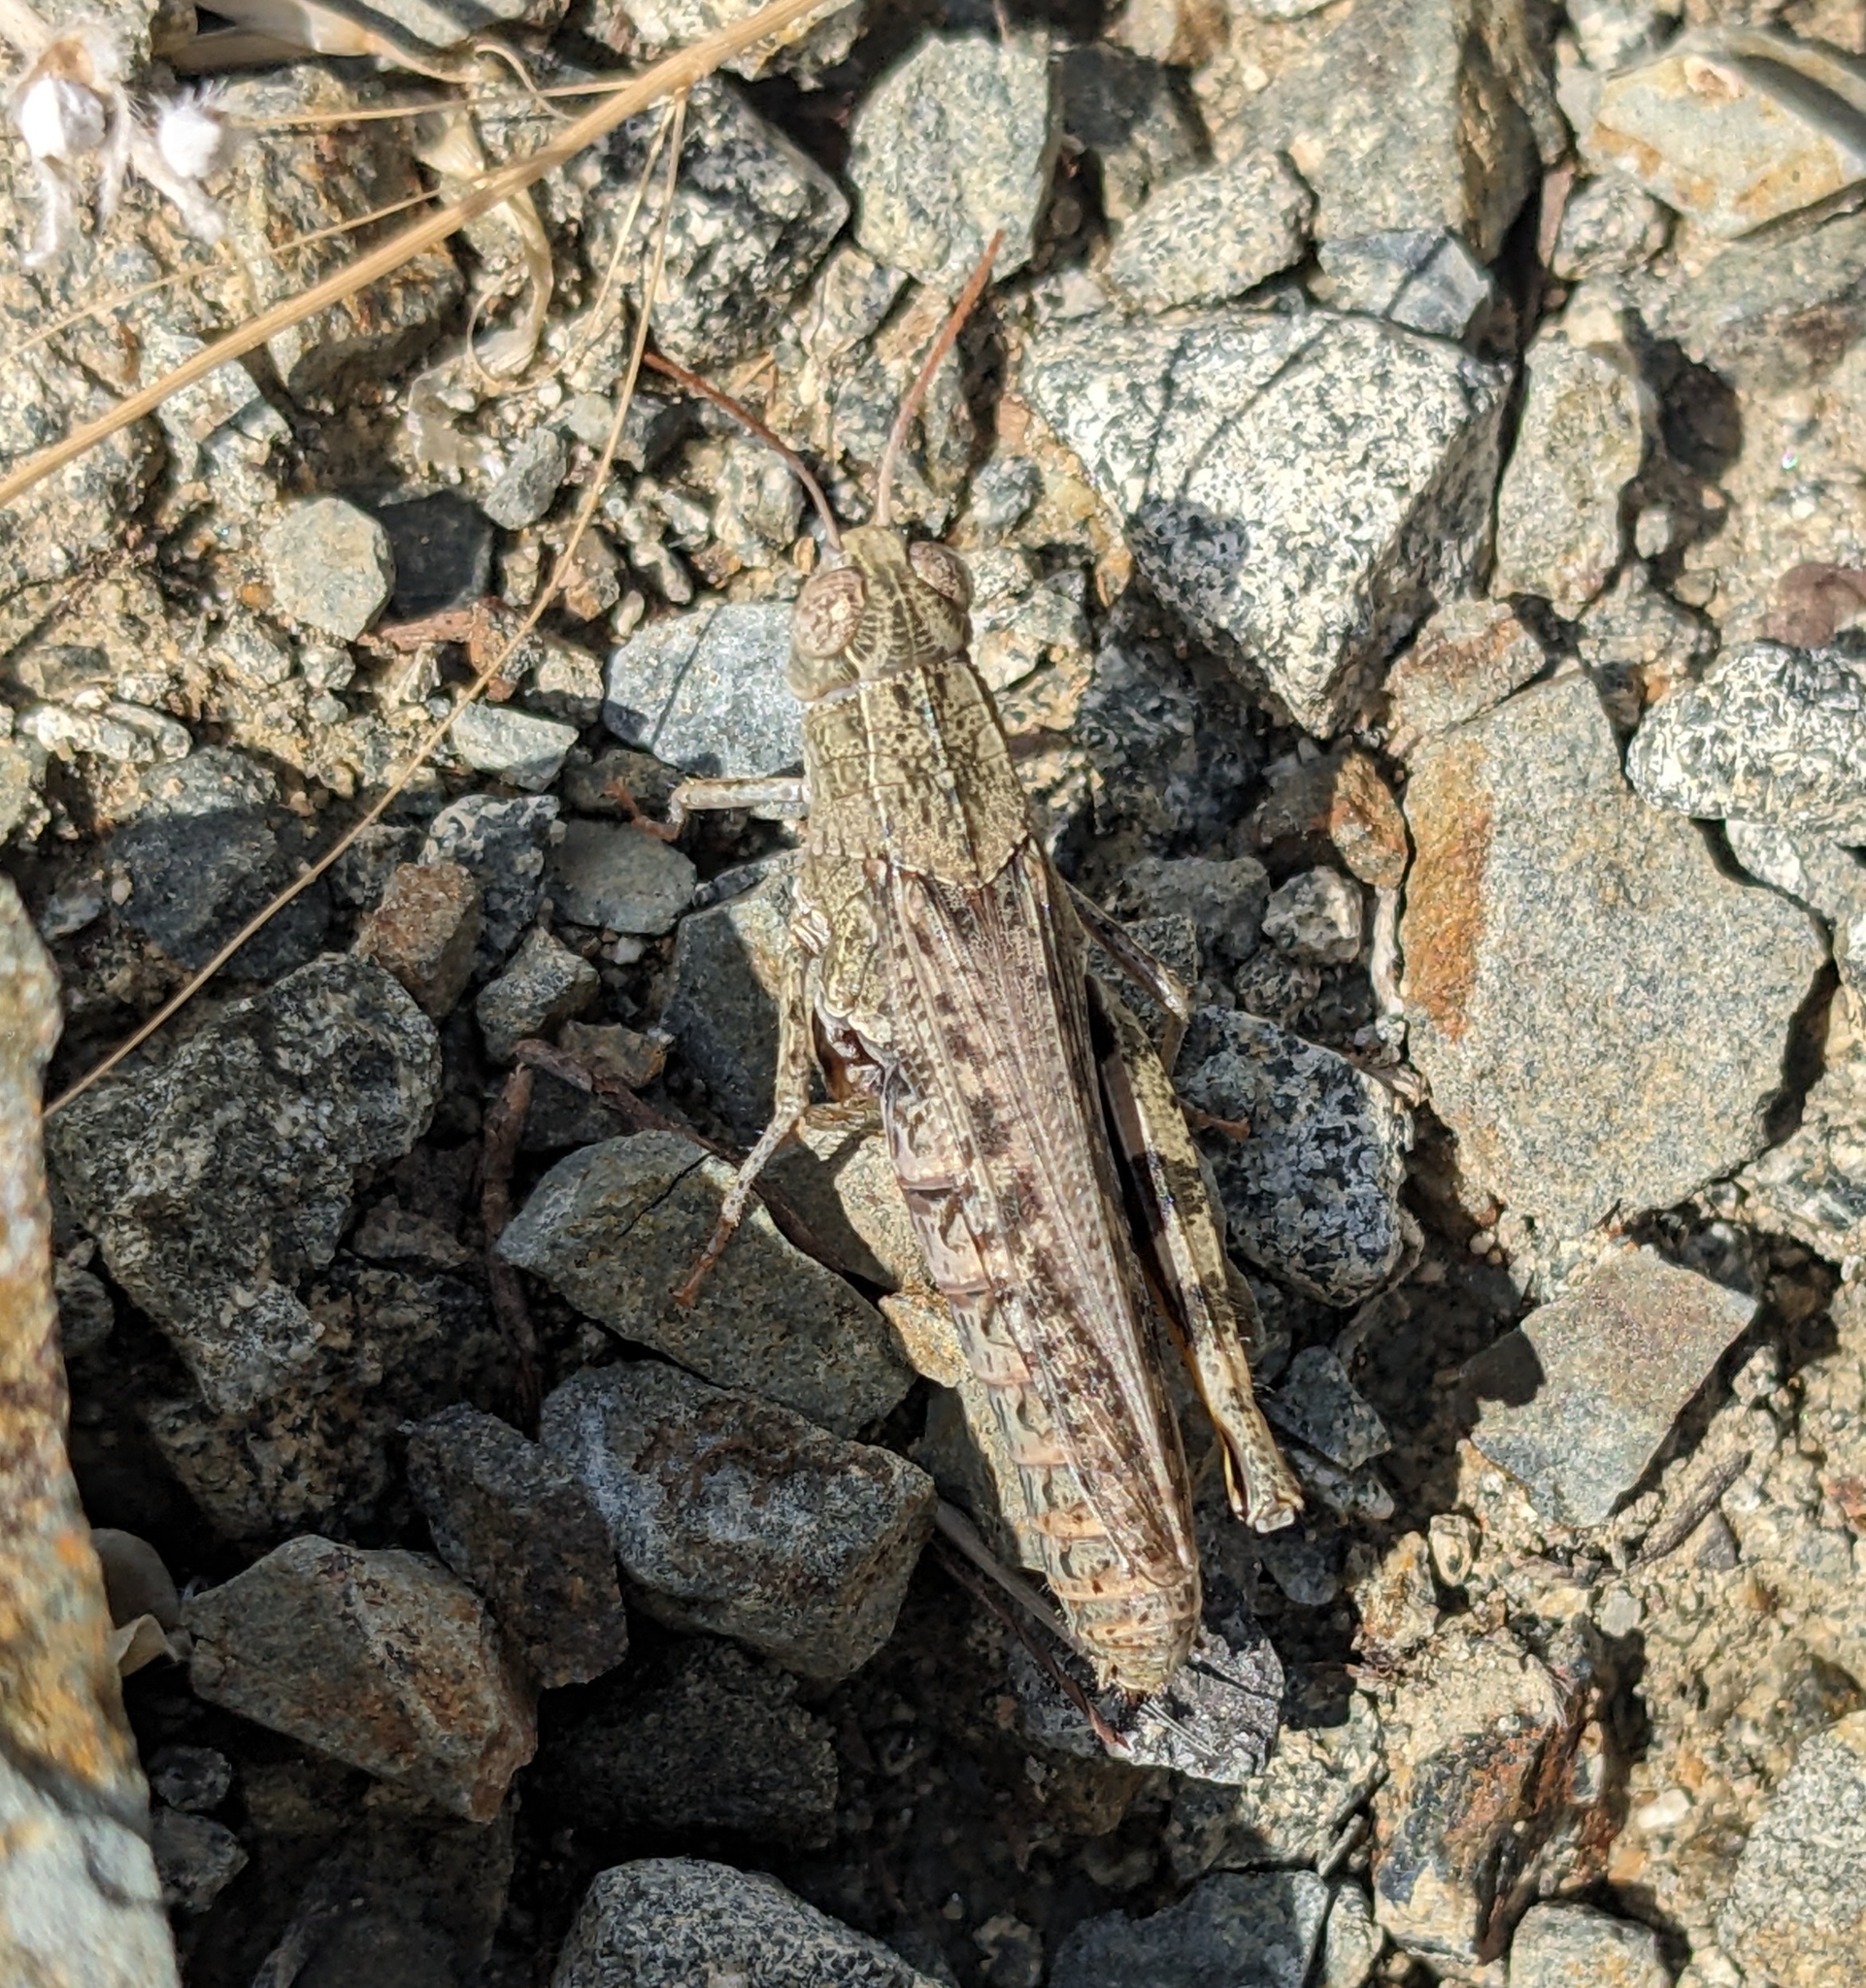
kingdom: Animalia
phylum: Arthropoda
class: Insecta
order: Orthoptera
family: Acrididae
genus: Calliptamus
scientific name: Calliptamus barbarus
